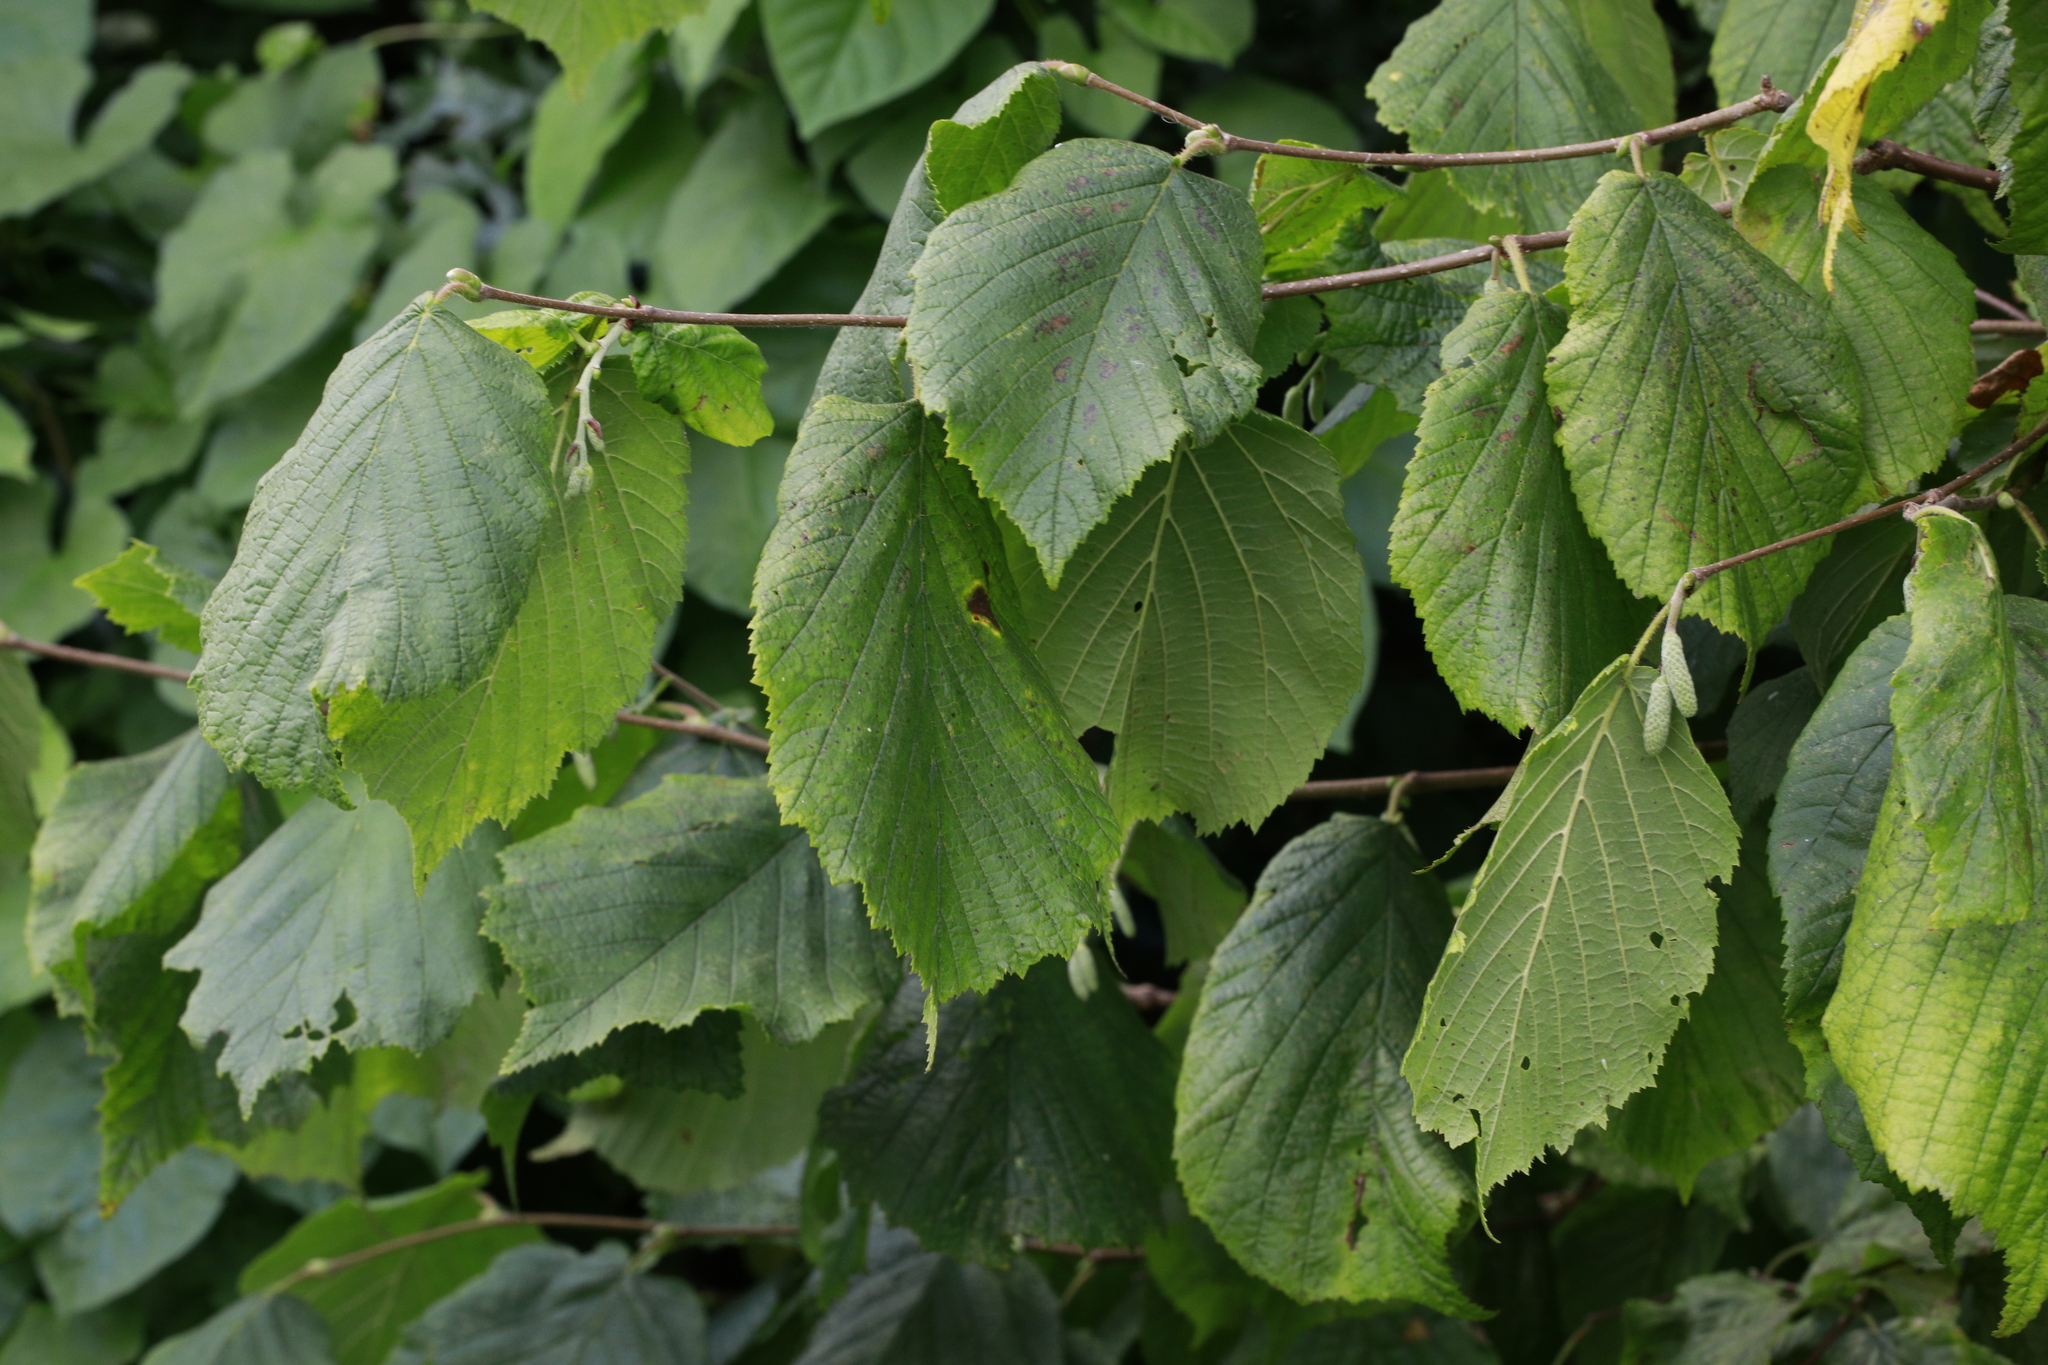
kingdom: Plantae
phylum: Tracheophyta
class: Magnoliopsida
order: Fagales
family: Betulaceae
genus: Corylus
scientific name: Corylus avellana
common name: European hazel
